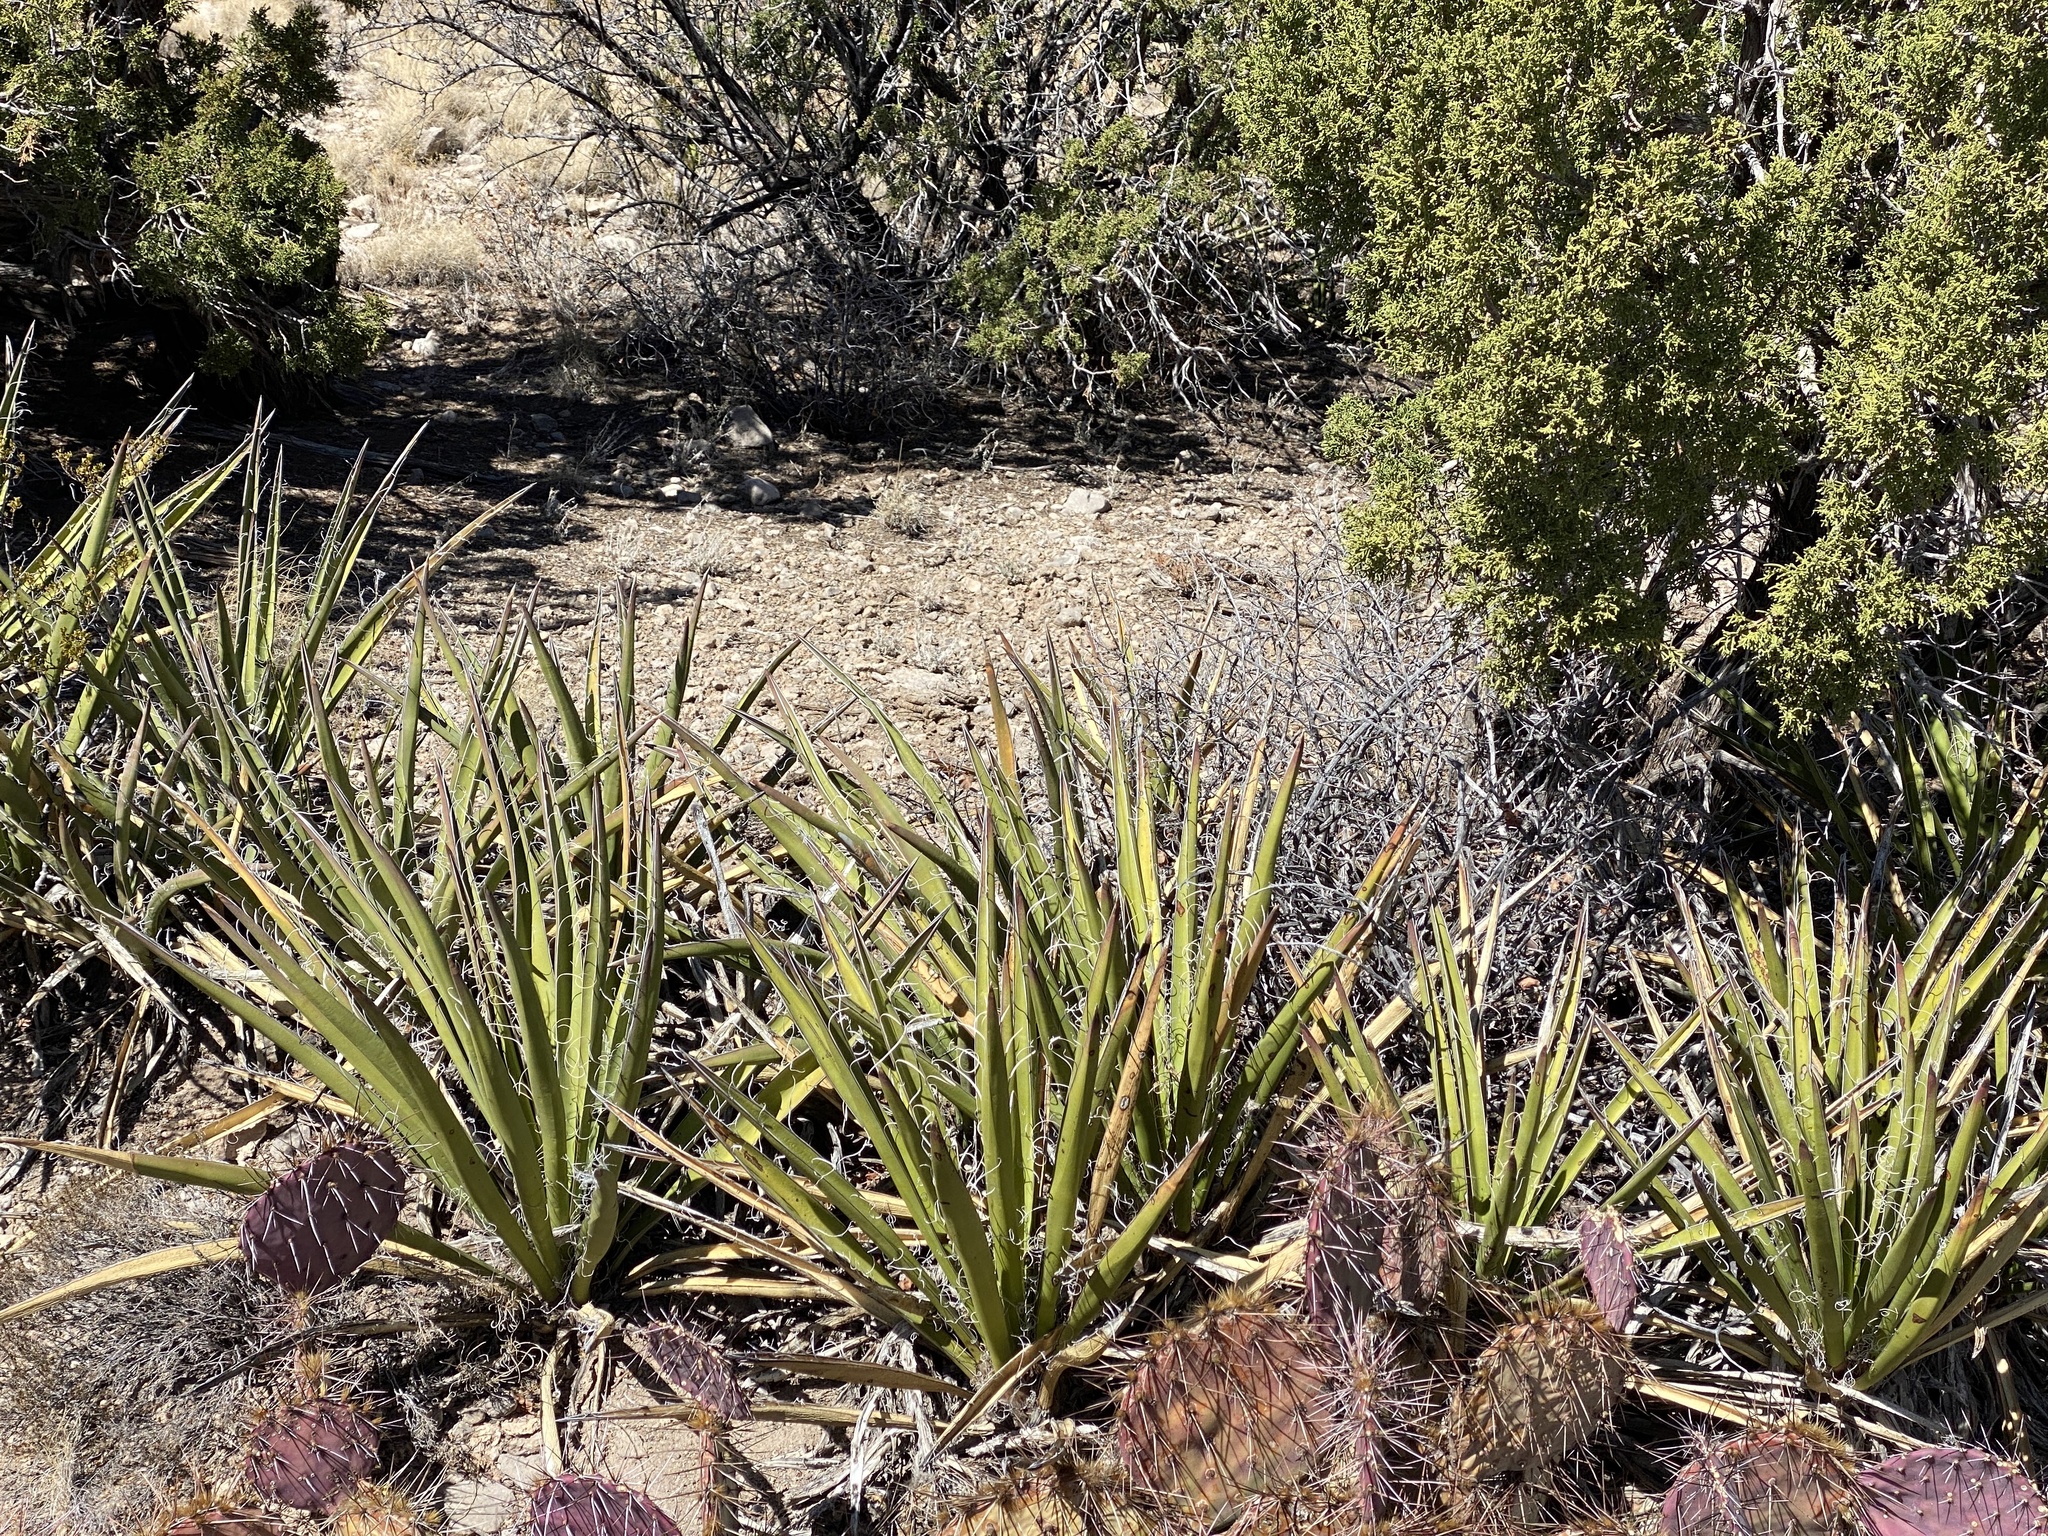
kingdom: Plantae
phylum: Tracheophyta
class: Liliopsida
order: Asparagales
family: Asparagaceae
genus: Yucca
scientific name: Yucca baccata
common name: Banana yucca
